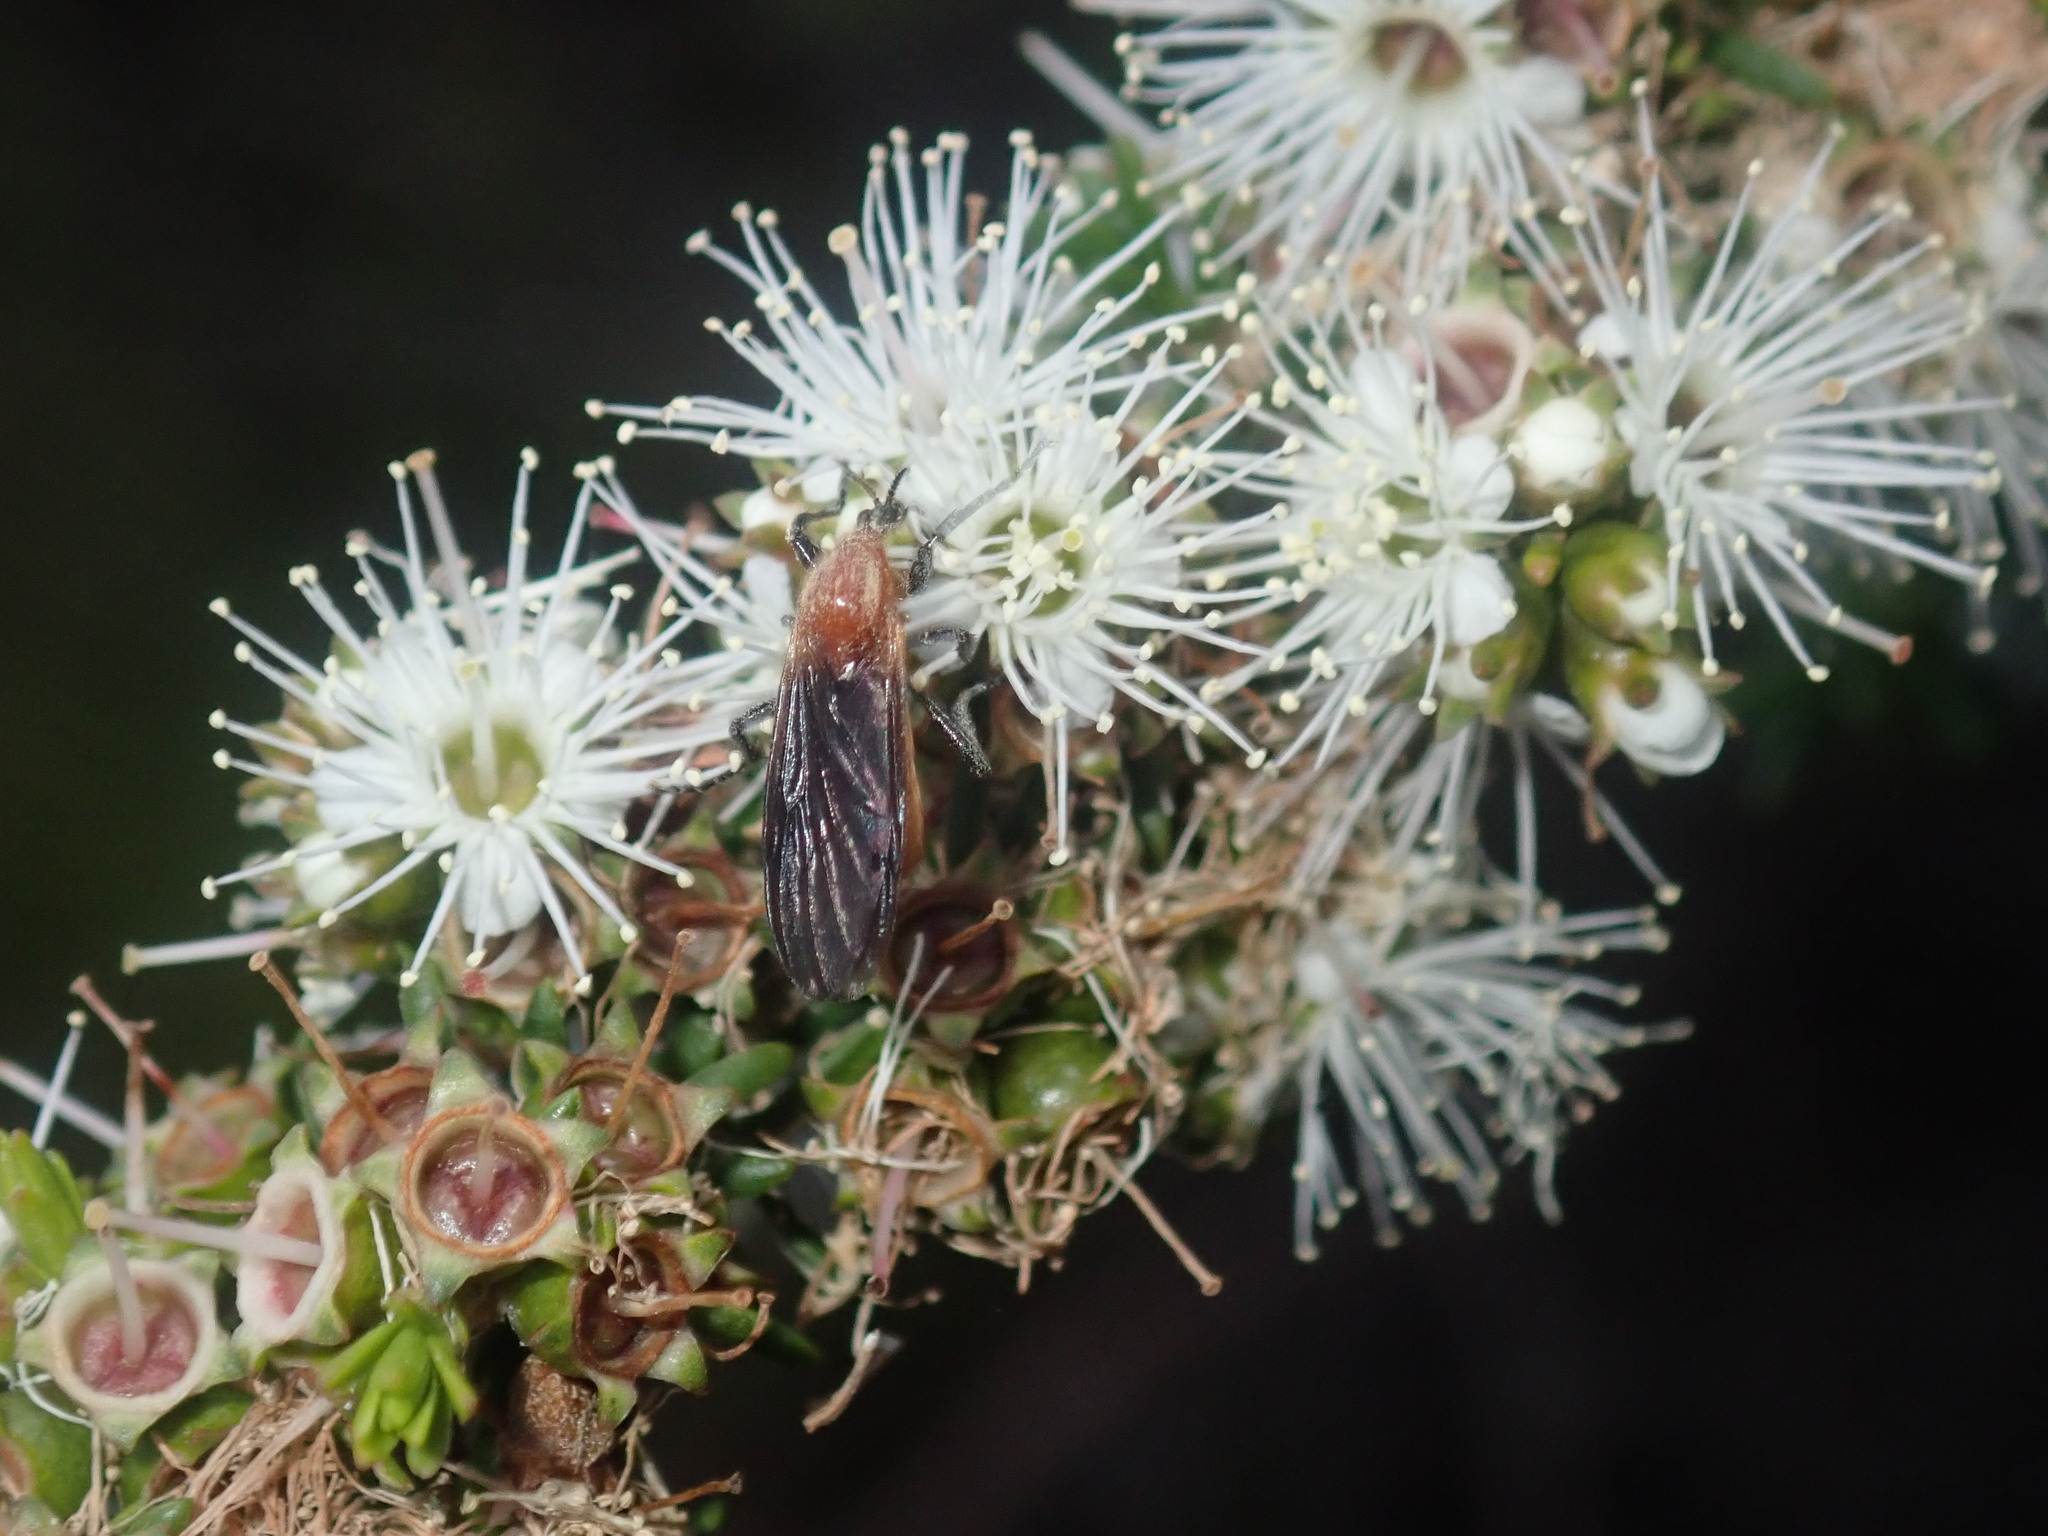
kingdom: Animalia
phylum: Arthropoda
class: Insecta
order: Diptera
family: Bibionidae
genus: Bibio
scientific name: Bibio imitator
